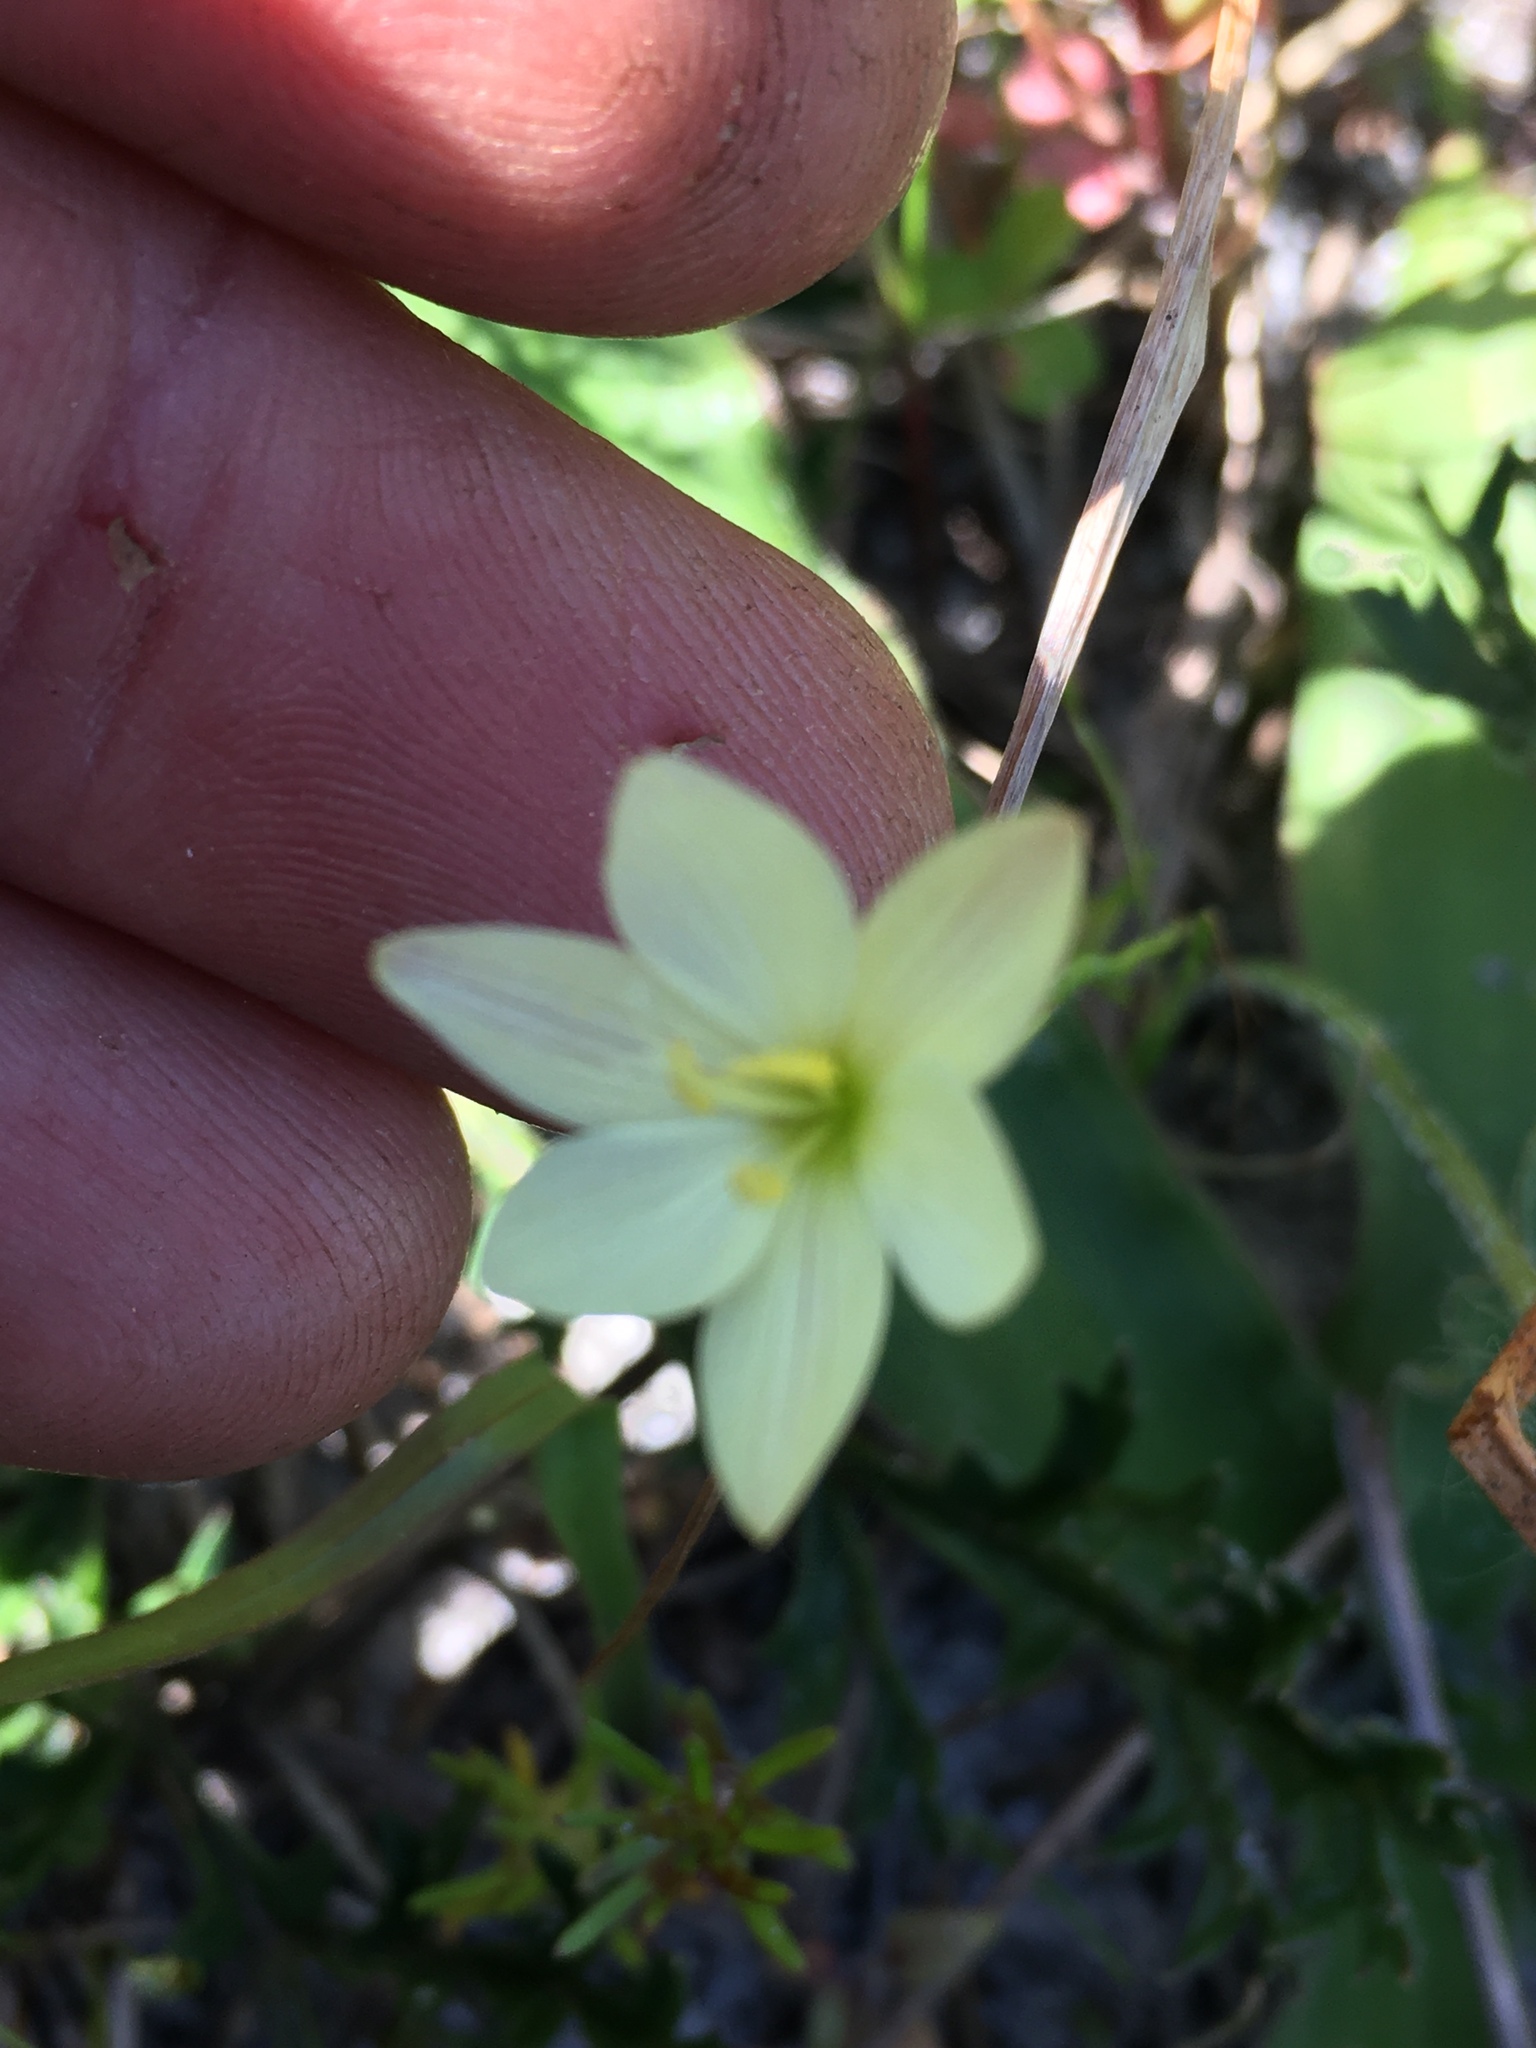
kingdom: Plantae
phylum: Tracheophyta
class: Liliopsida
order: Asparagales
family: Iridaceae
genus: Geissorhiza
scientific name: Geissorhiza imbricata
